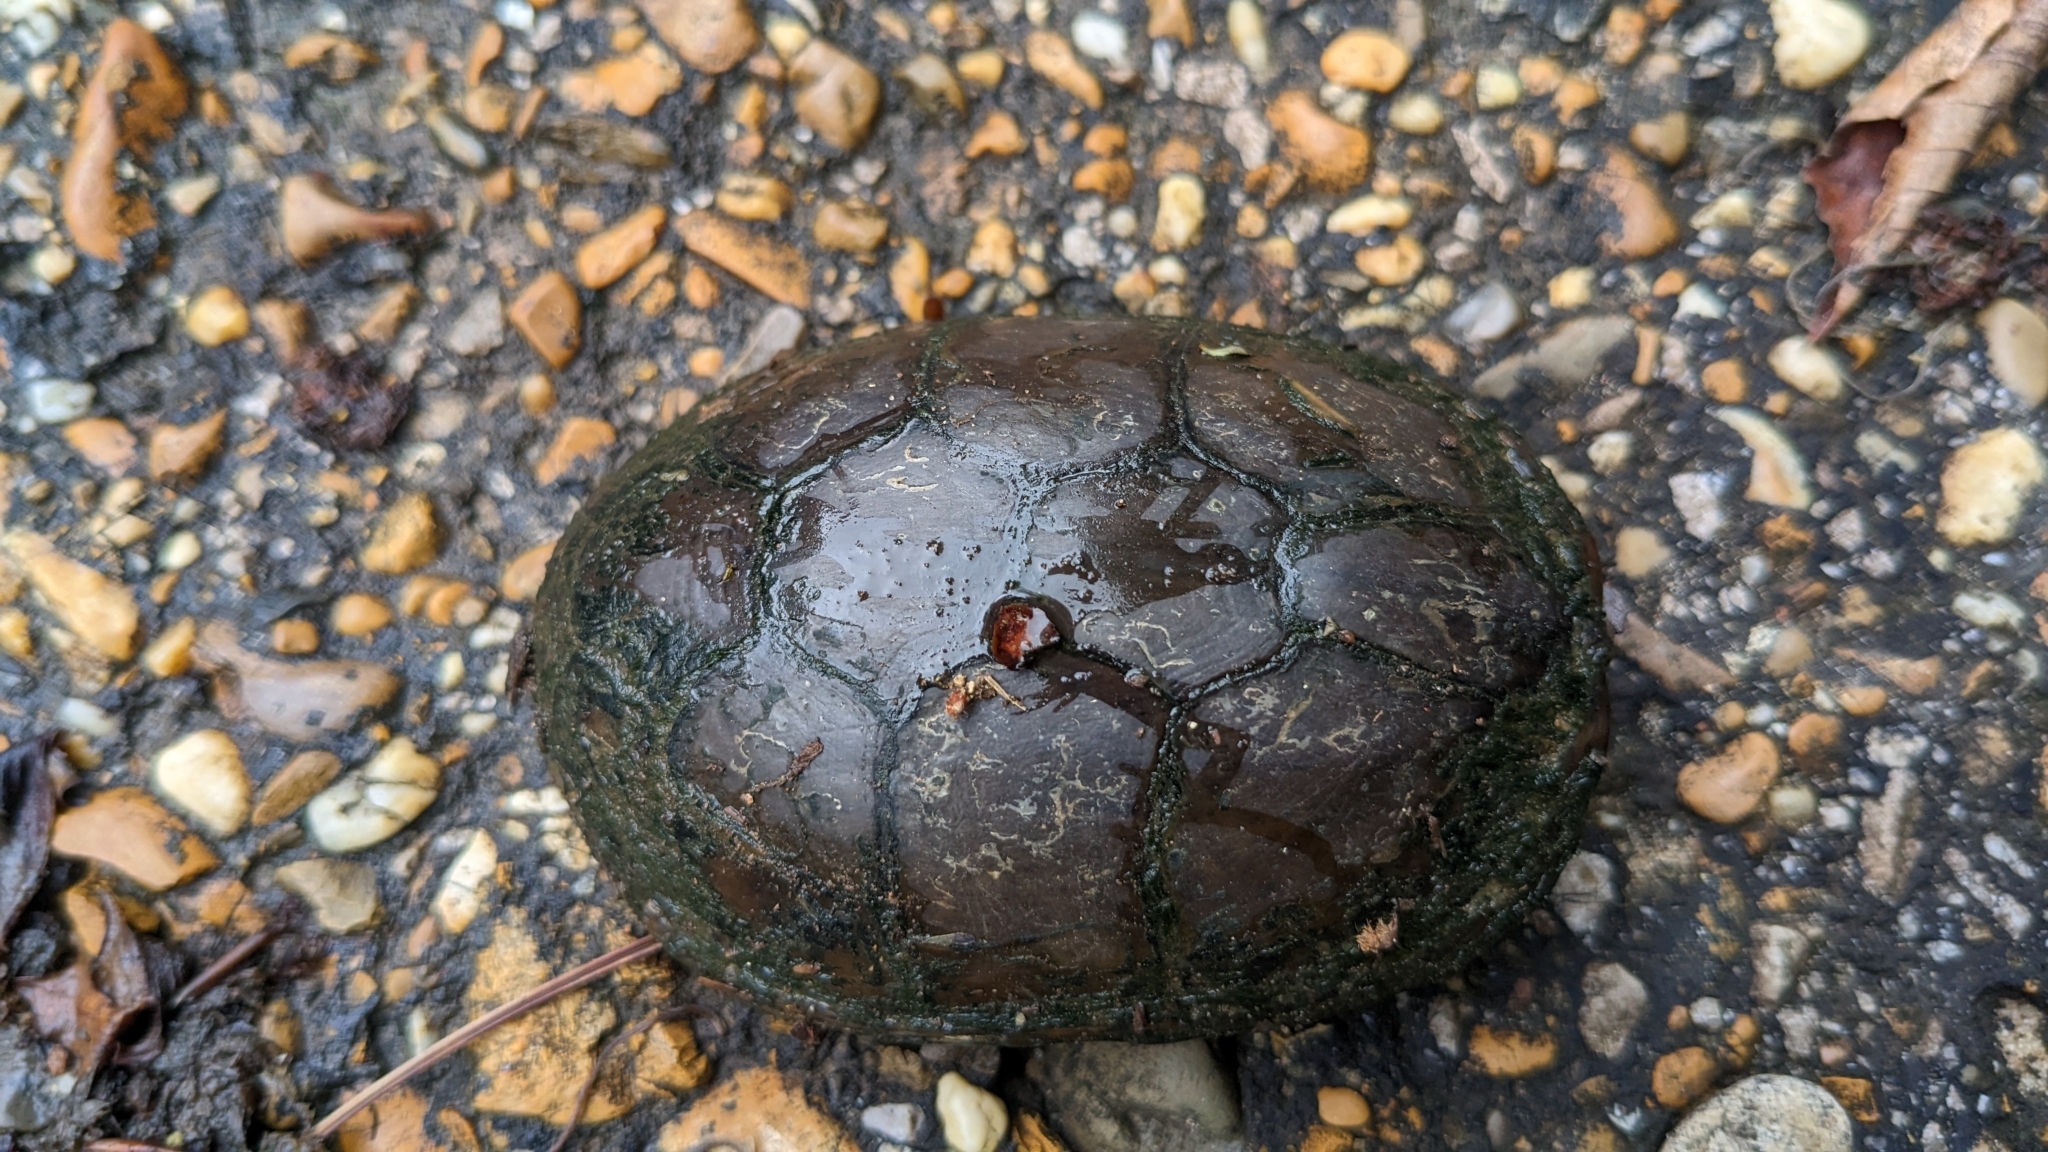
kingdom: Animalia
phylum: Chordata
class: Testudines
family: Kinosternidae
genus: Kinosternon
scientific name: Kinosternon subrubrum
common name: Eastern mud turtle
